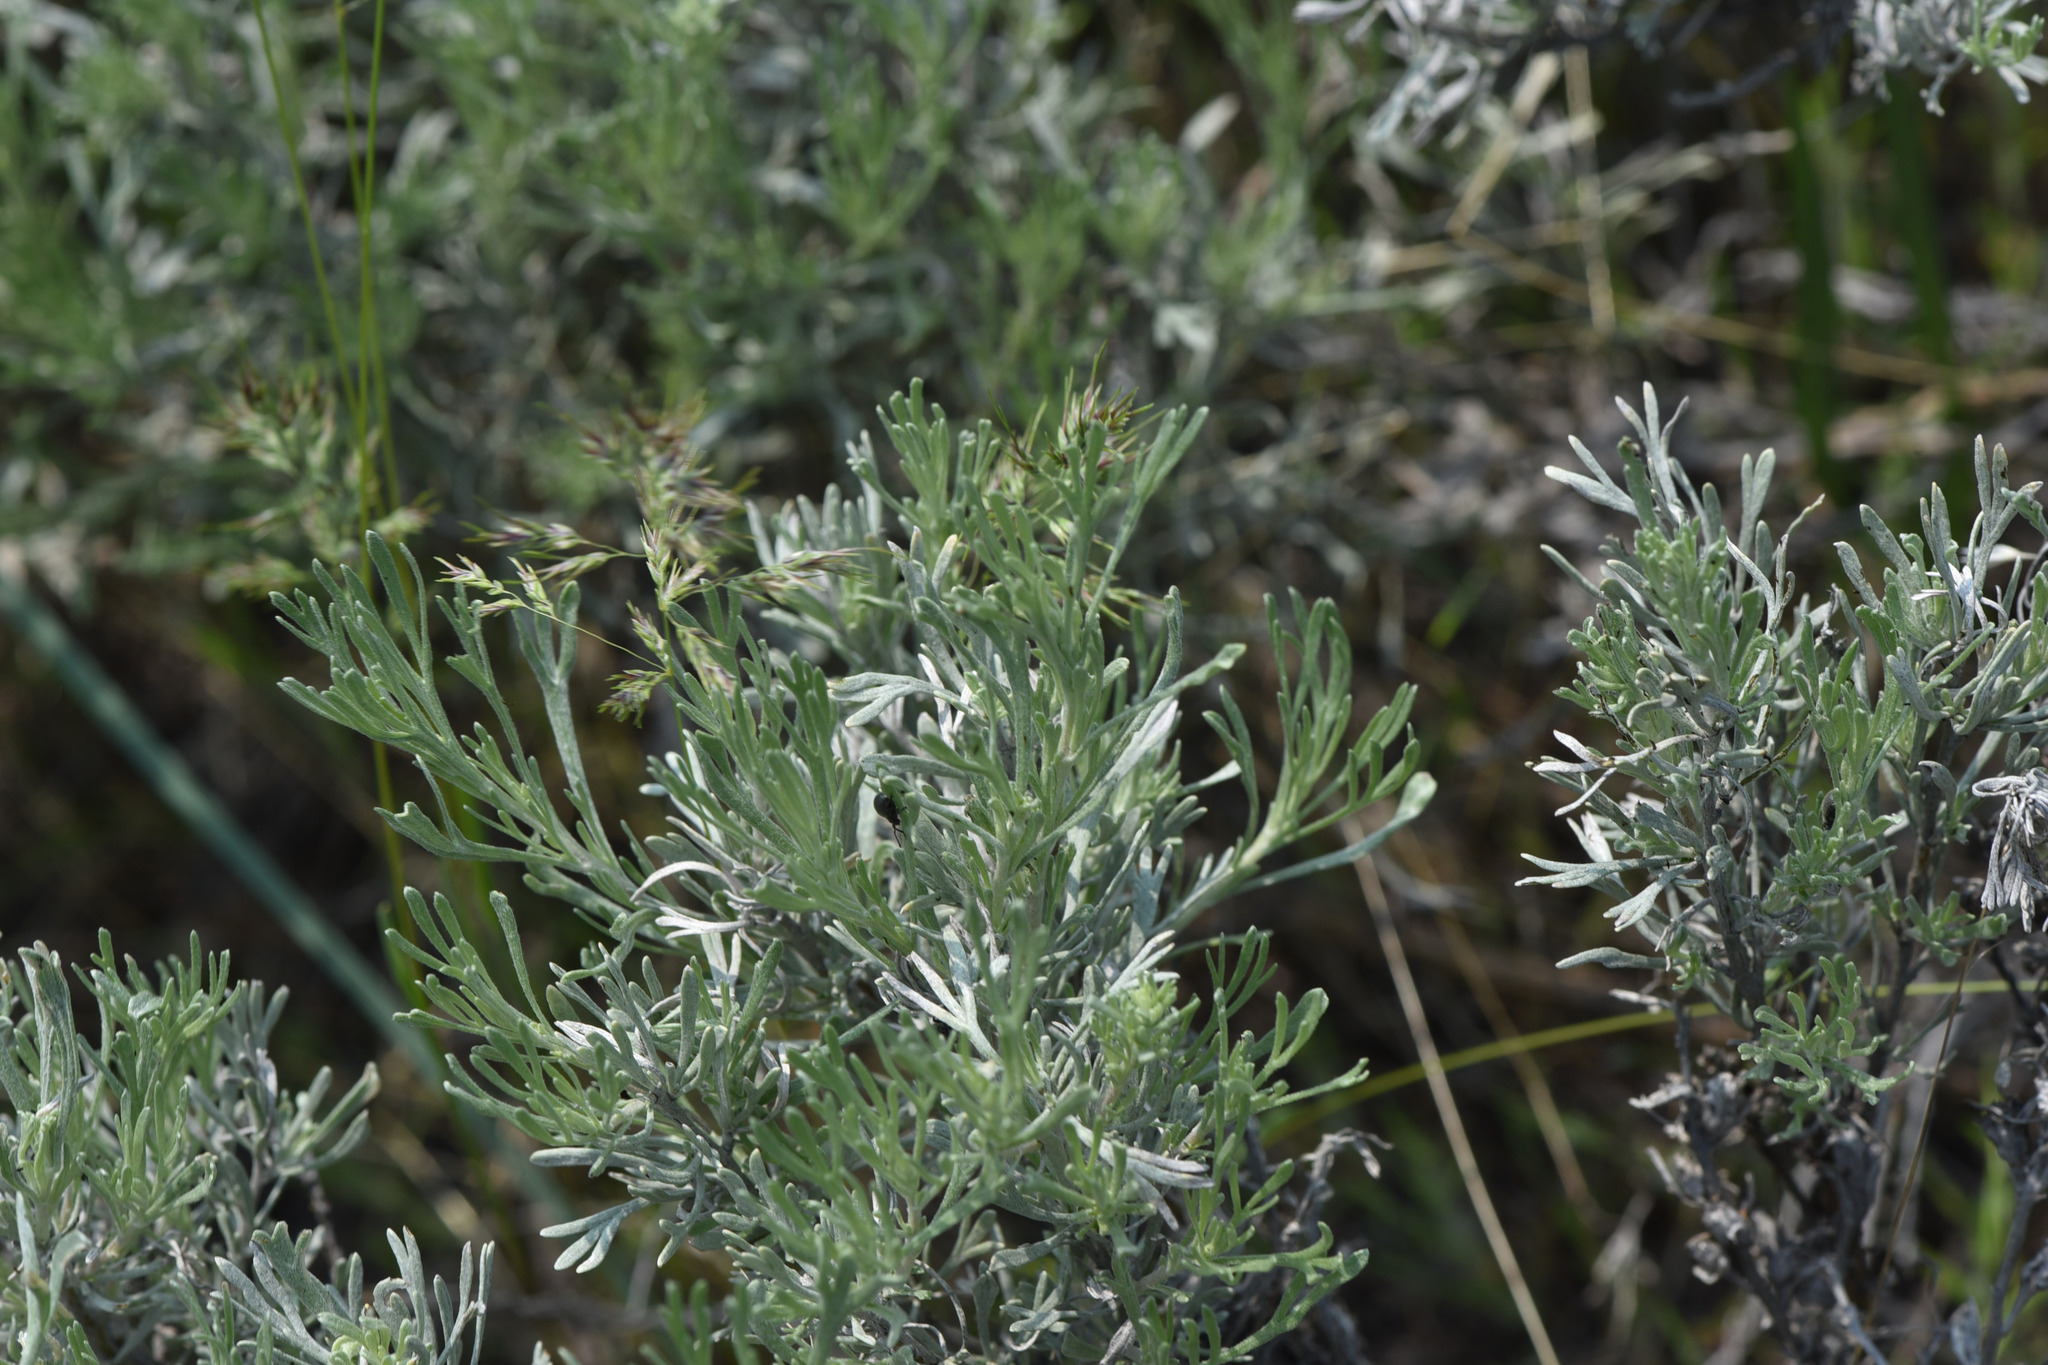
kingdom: Plantae
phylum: Tracheophyta
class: Magnoliopsida
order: Asterales
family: Asteraceae
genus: Artemisia
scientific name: Artemisia tripartita
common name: Three-tip sagebrush
